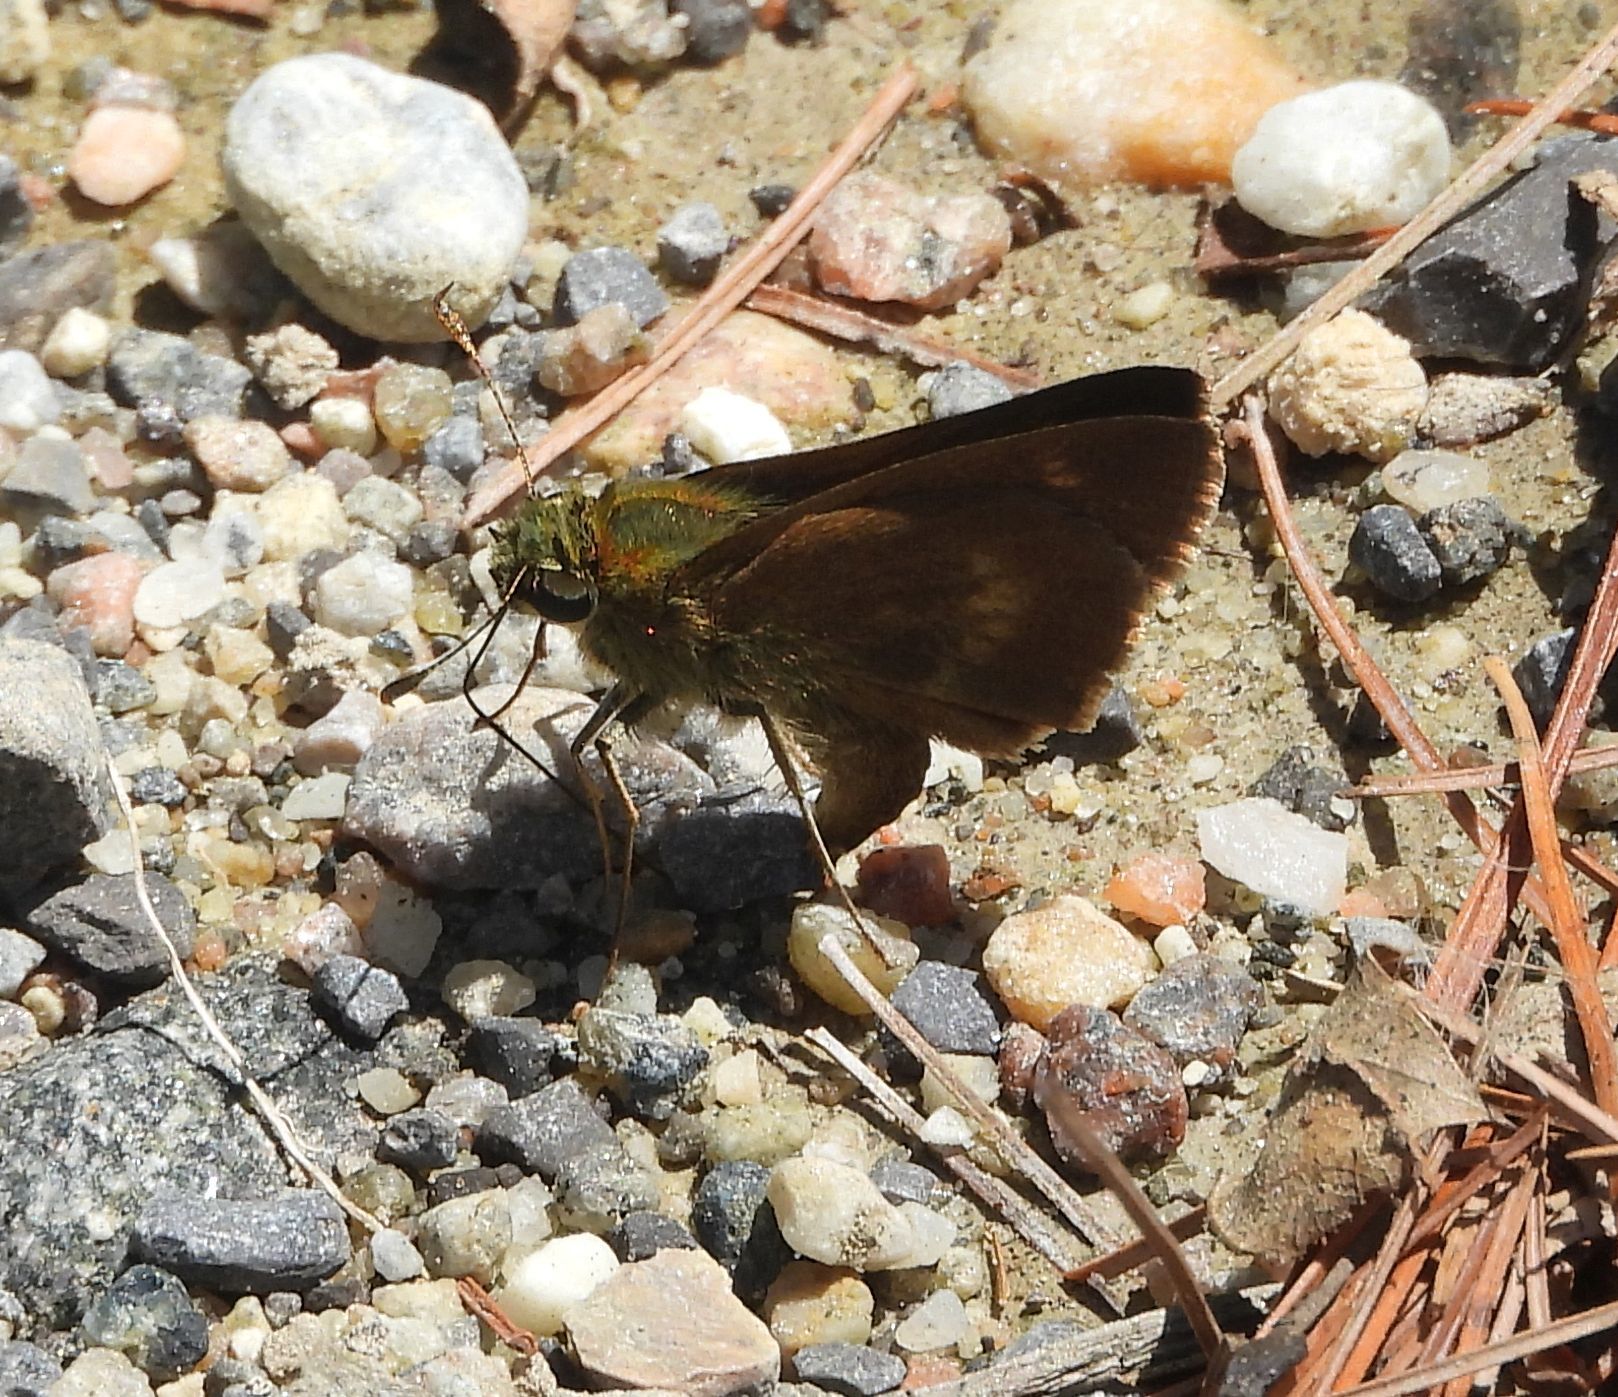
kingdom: Animalia
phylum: Arthropoda
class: Insecta
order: Lepidoptera
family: Hesperiidae
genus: Polites
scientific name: Polites egeremet
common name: Northern broken-dash
